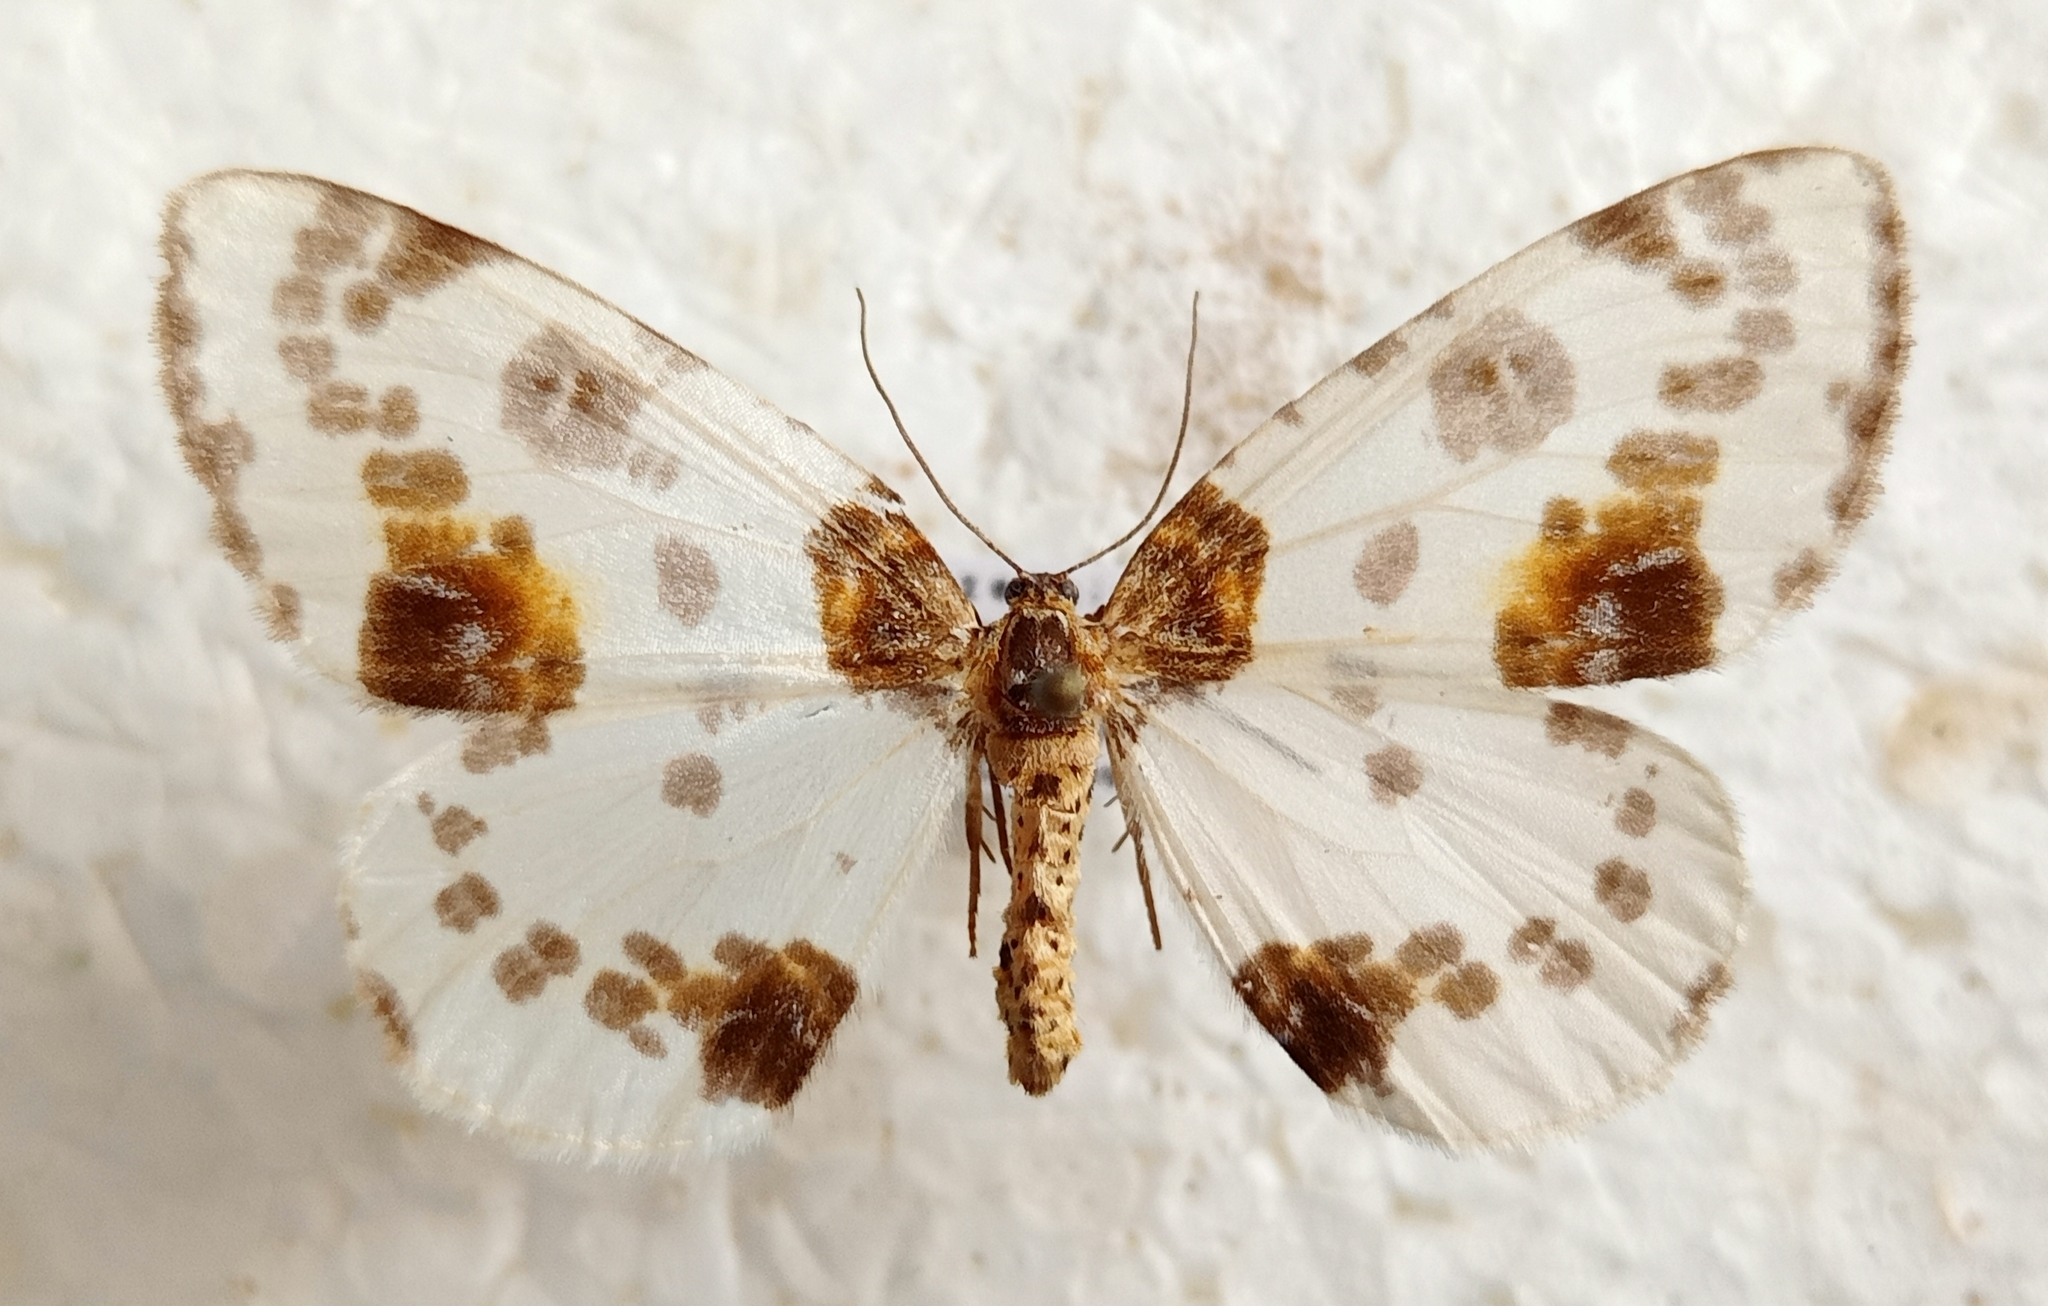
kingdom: Animalia
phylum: Arthropoda
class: Insecta
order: Lepidoptera
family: Geometridae
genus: Abraxas
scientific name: Abraxas sylvata
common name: Clouded magpie
